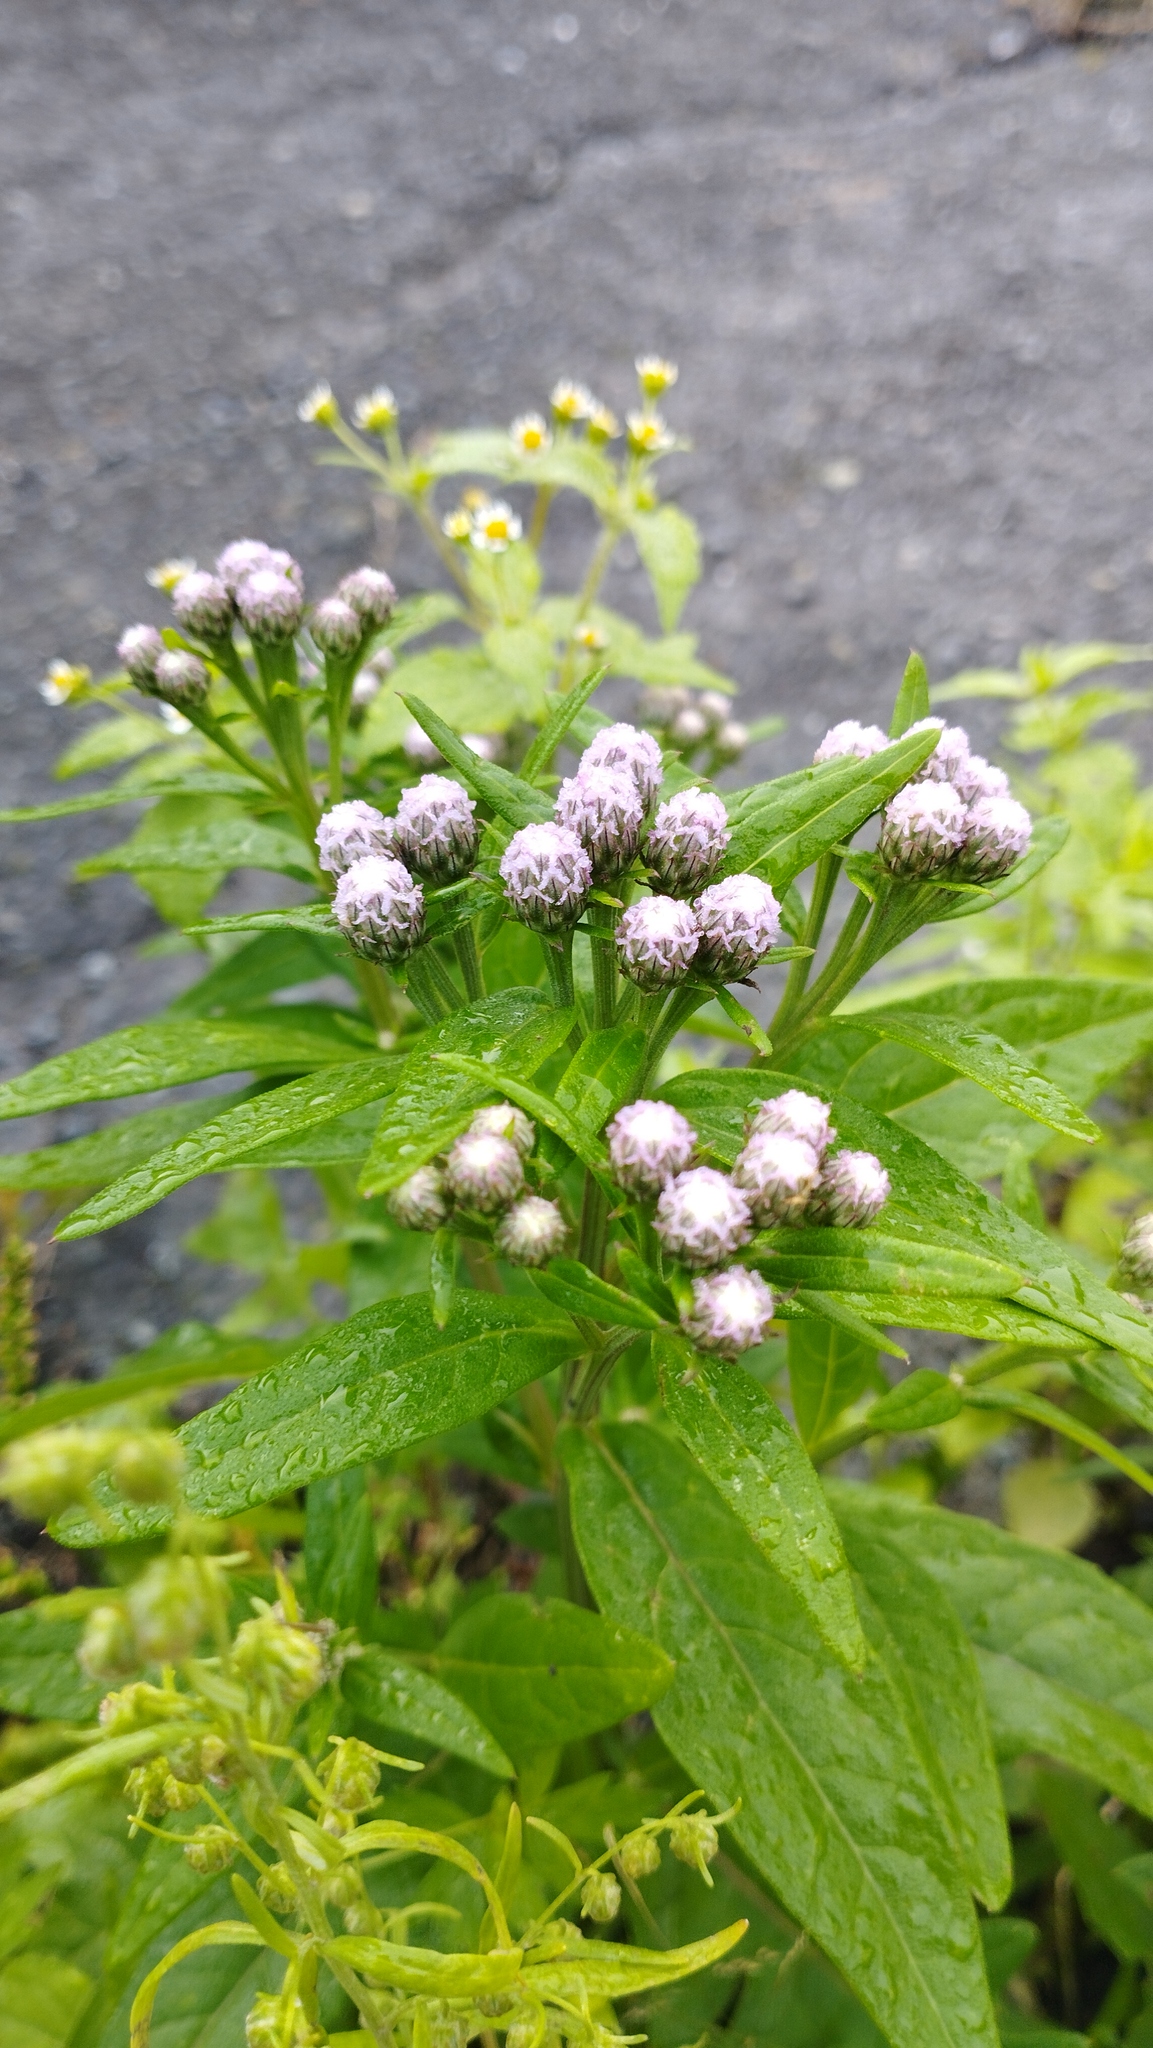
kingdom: Plantae
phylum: Tracheophyta
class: Magnoliopsida
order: Asterales
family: Asteraceae
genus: Saussurea
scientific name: Saussurea pulchella
